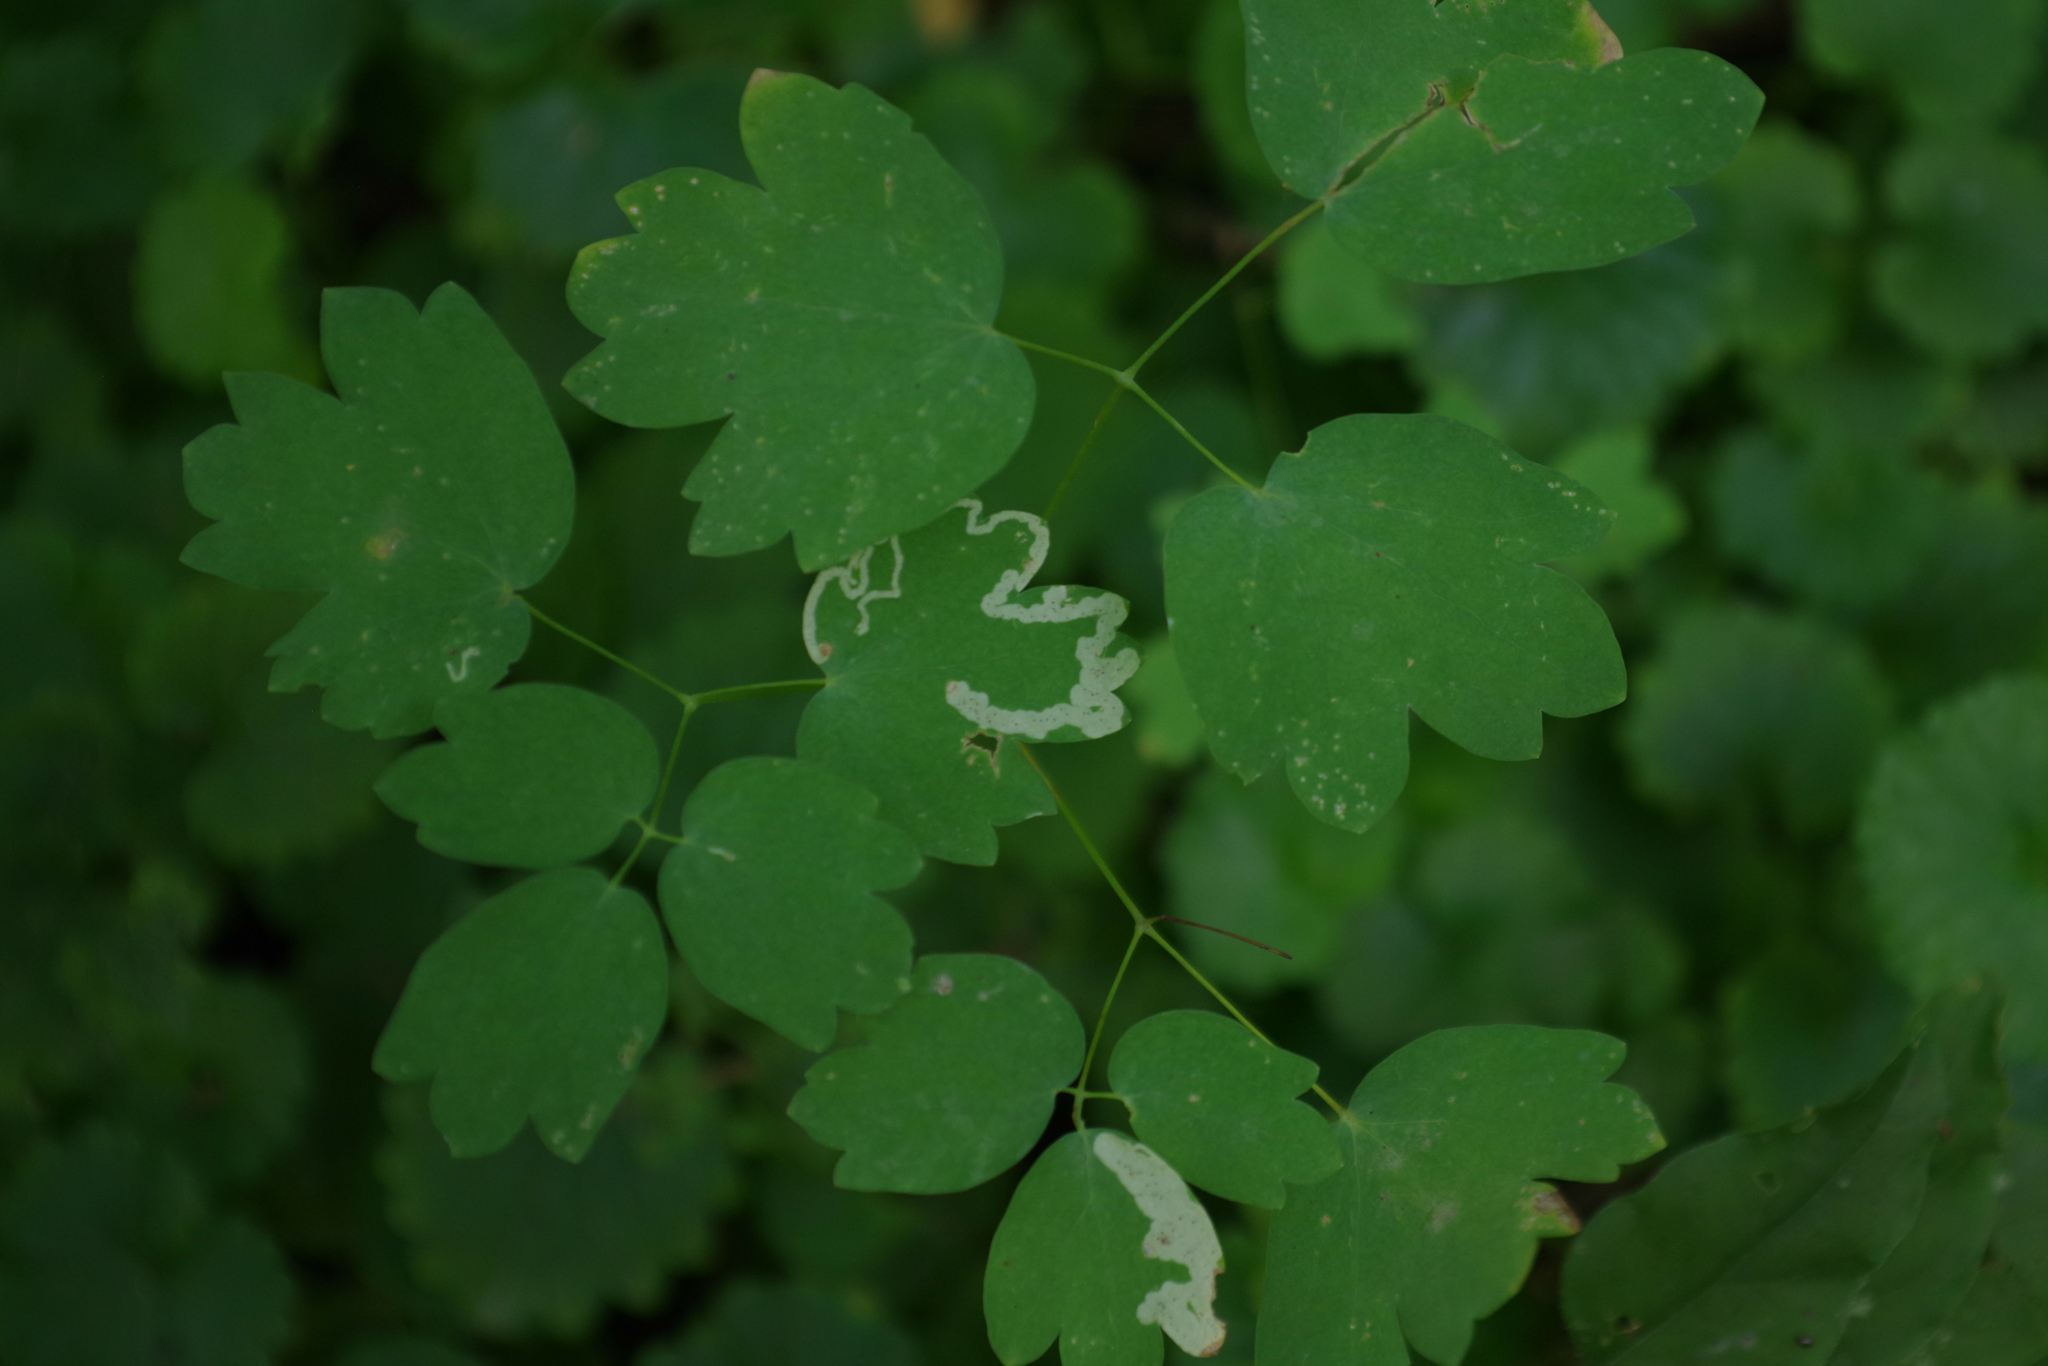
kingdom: Plantae
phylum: Tracheophyta
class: Magnoliopsida
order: Ranunculales
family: Ranunculaceae
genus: Thalictrum
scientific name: Thalictrum venulosum
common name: Early meadow-rue
